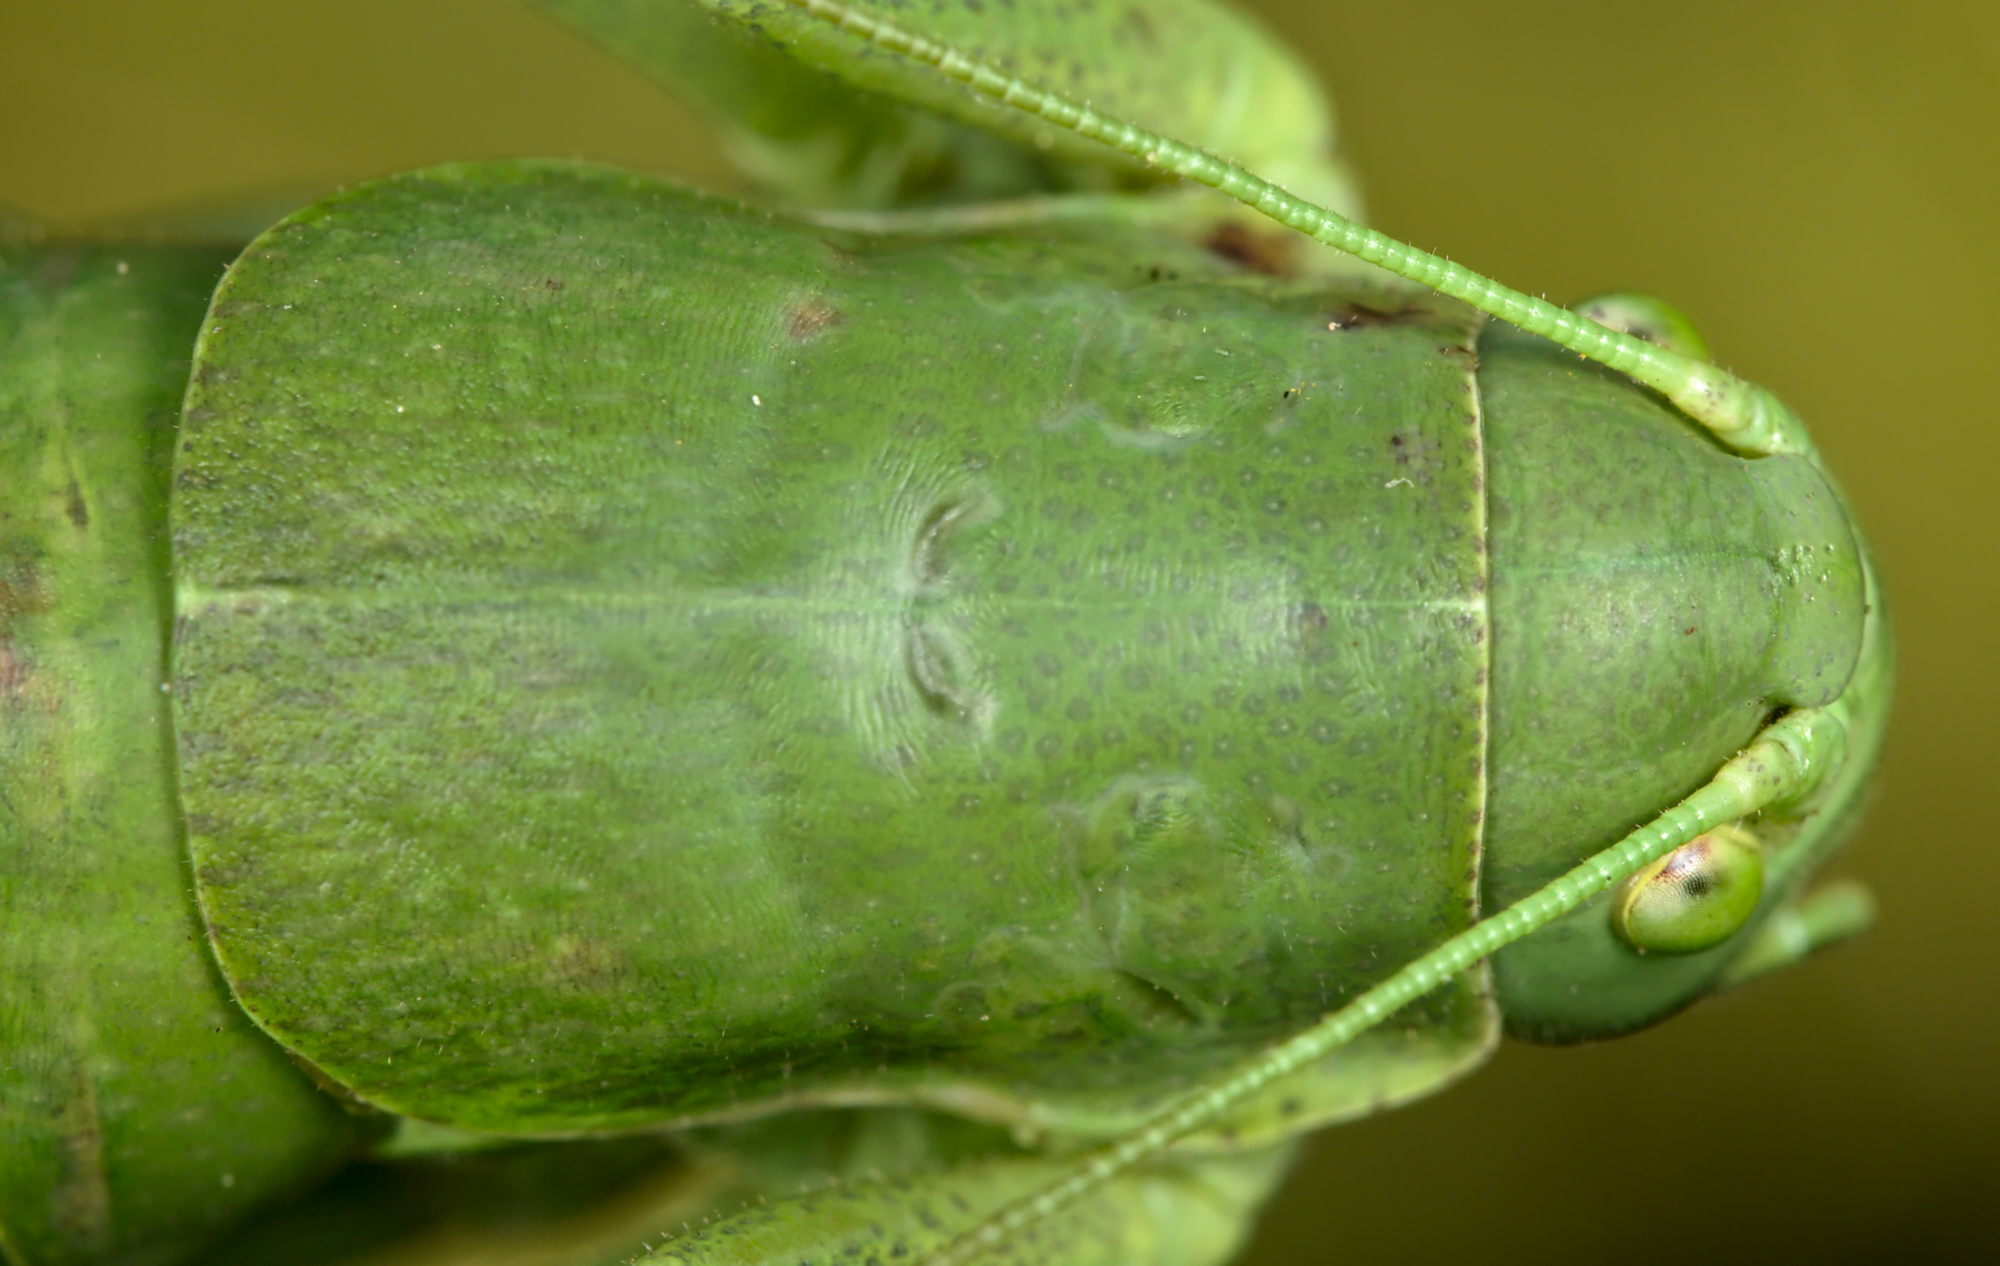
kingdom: Animalia
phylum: Arthropoda
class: Insecta
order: Orthoptera
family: Tettigoniidae
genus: Polysarcus
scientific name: Polysarcus denticauda
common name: Large saw-tailed bush-cricket
